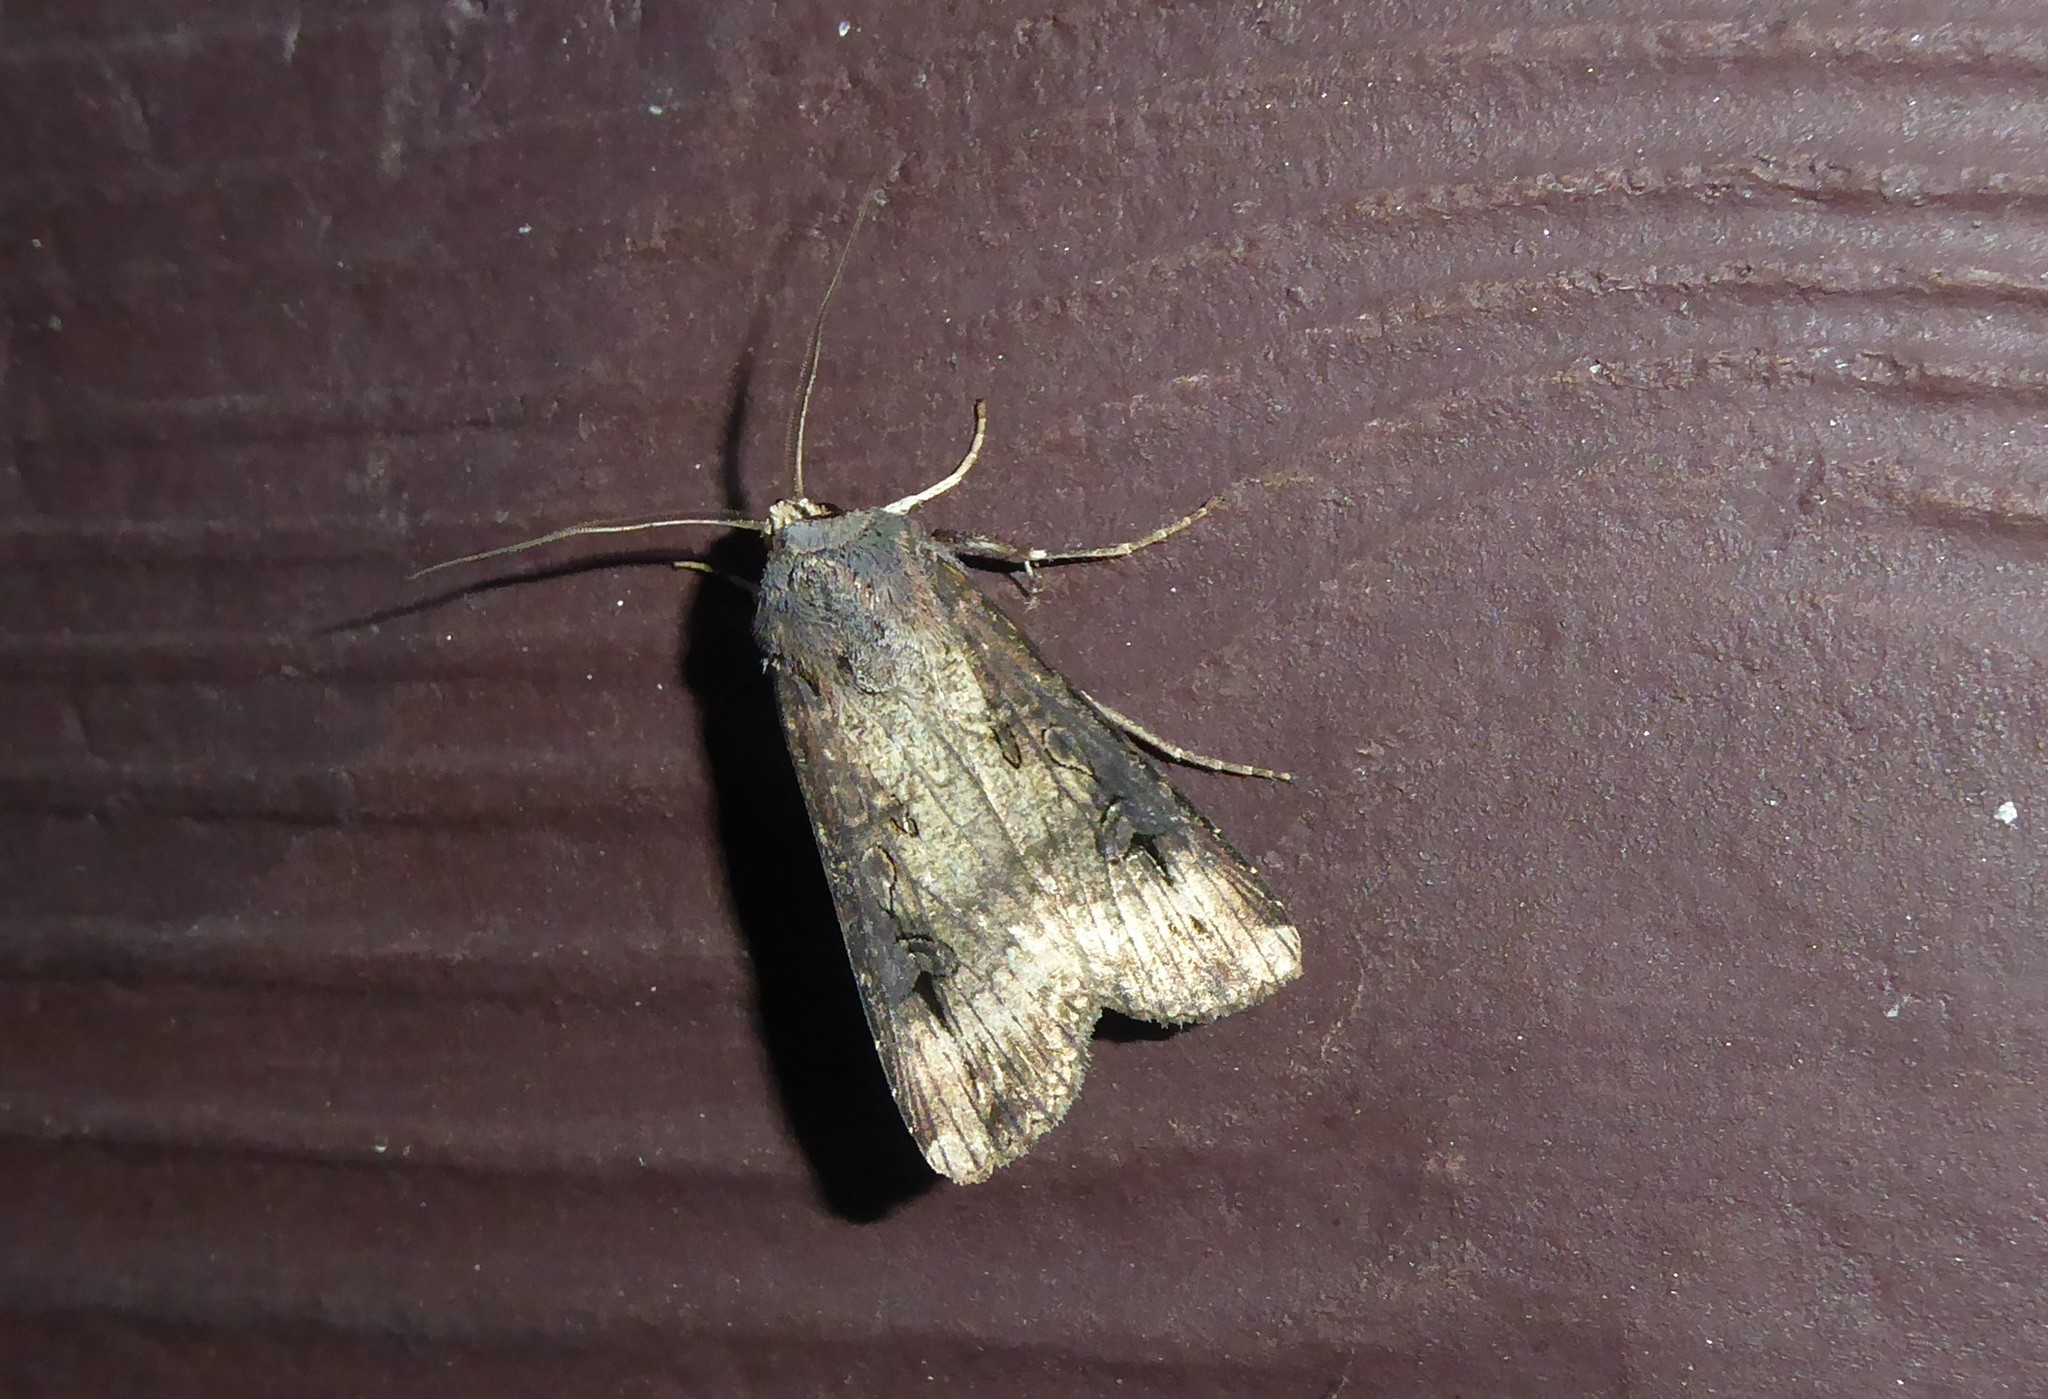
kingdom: Animalia
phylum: Arthropoda
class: Insecta
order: Lepidoptera
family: Noctuidae
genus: Agrotis
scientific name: Agrotis ipsilon
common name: Dark sword-grass
